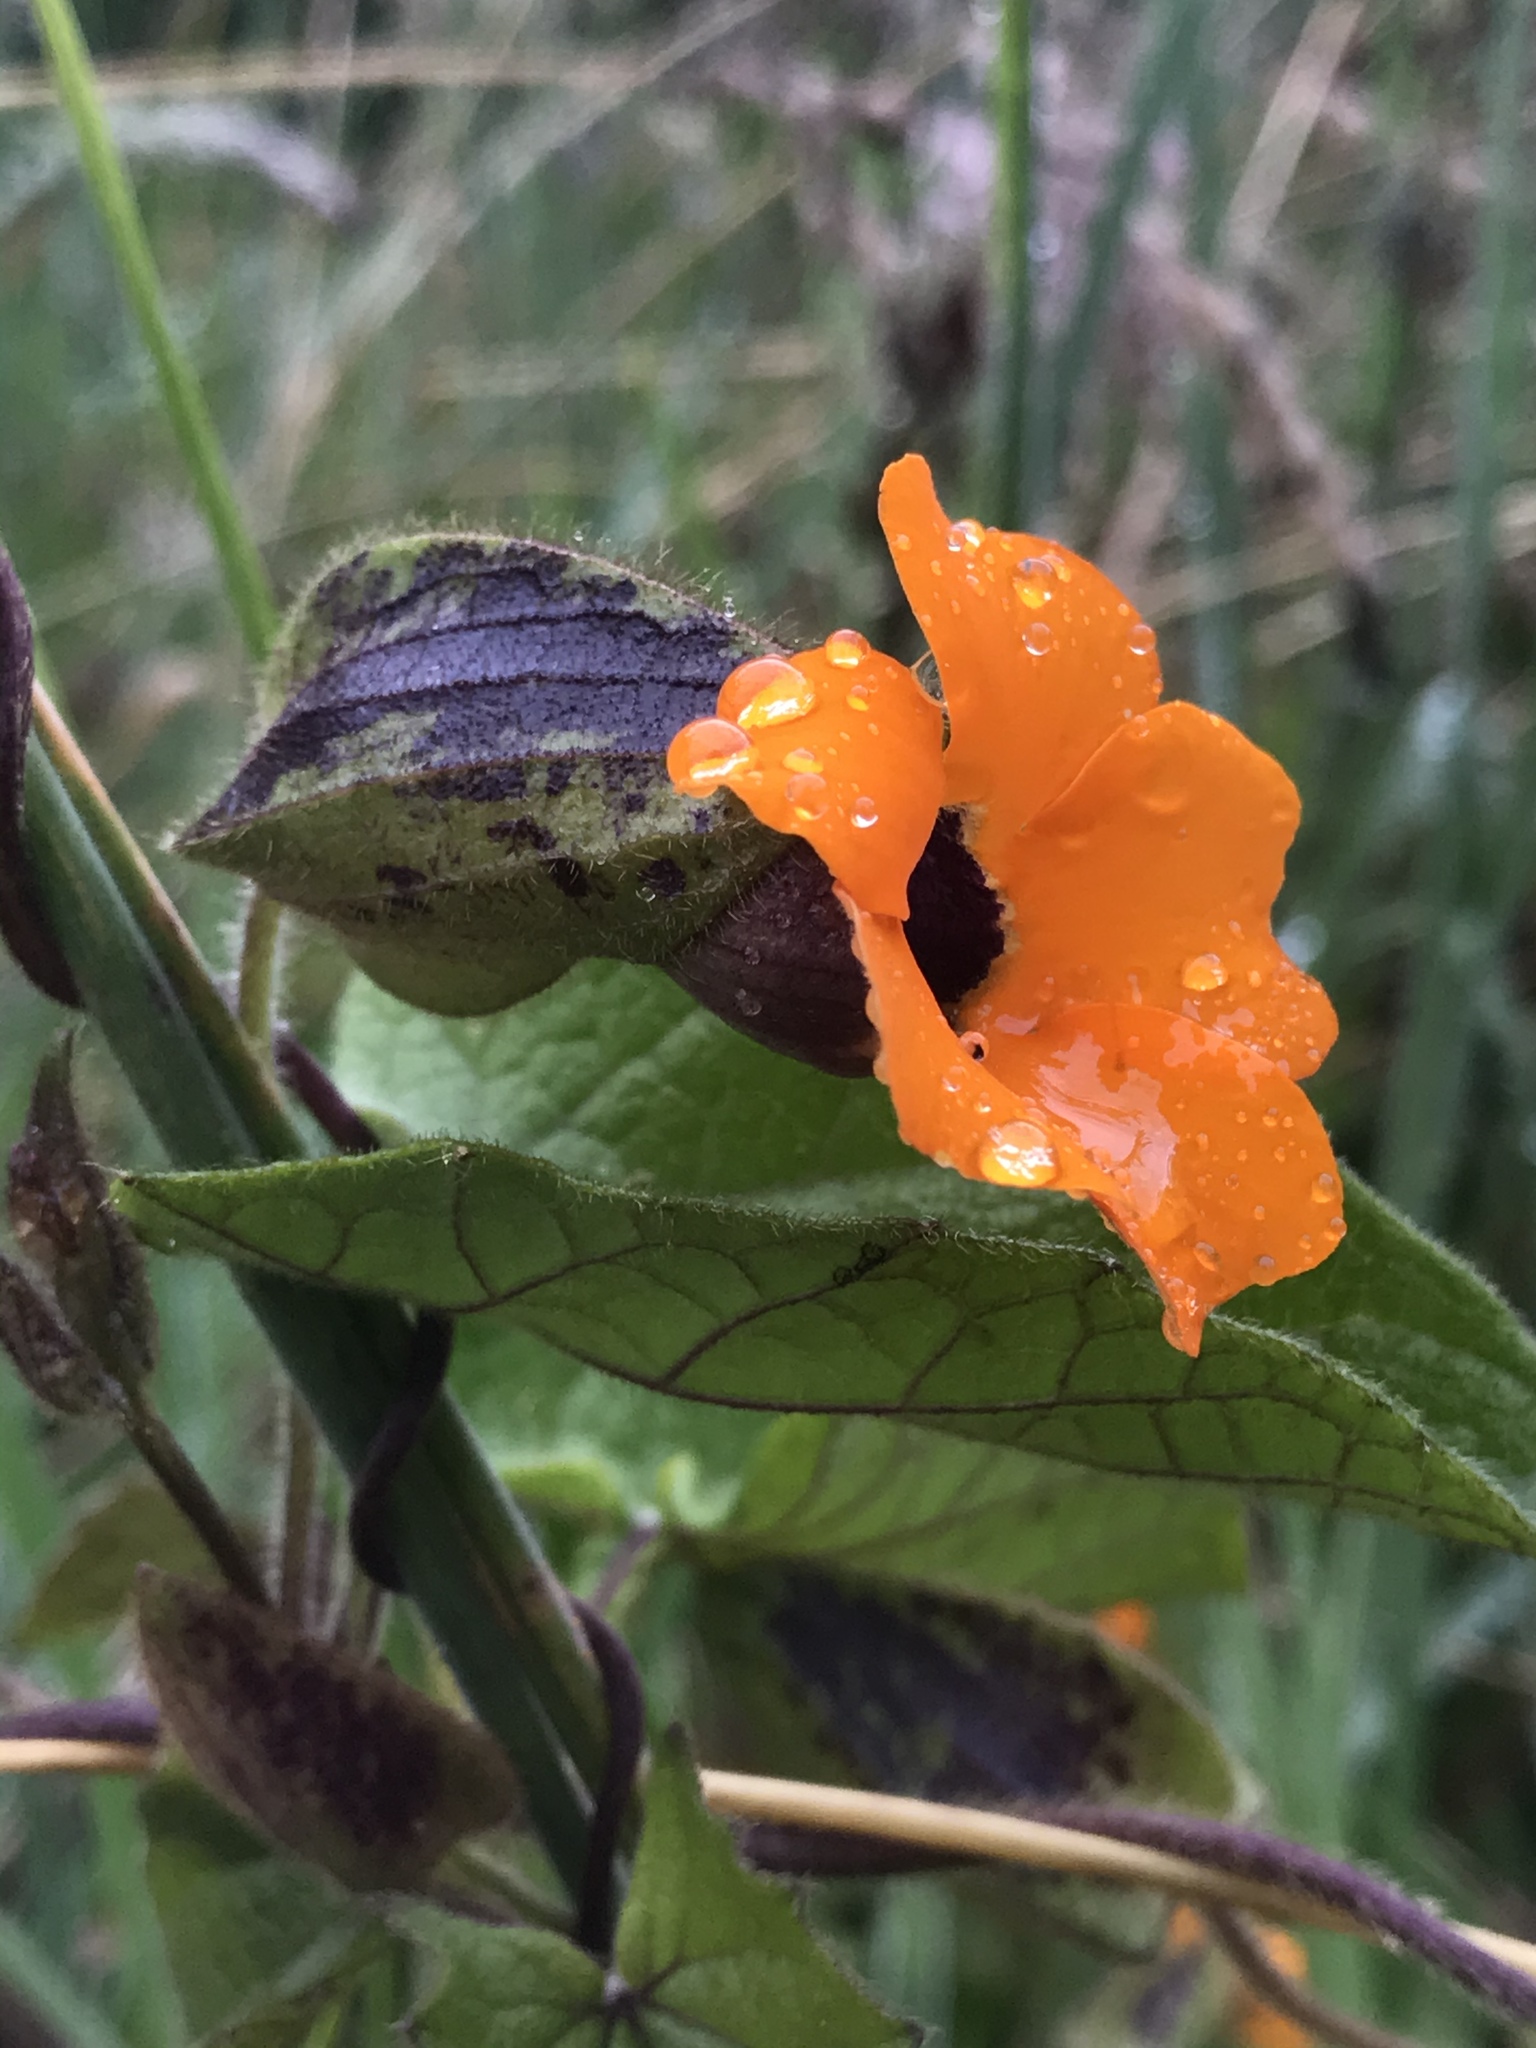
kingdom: Plantae
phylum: Tracheophyta
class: Magnoliopsida
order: Lamiales
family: Acanthaceae
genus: Thunbergia
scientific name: Thunbergia alata
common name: Blackeyed susan vine
